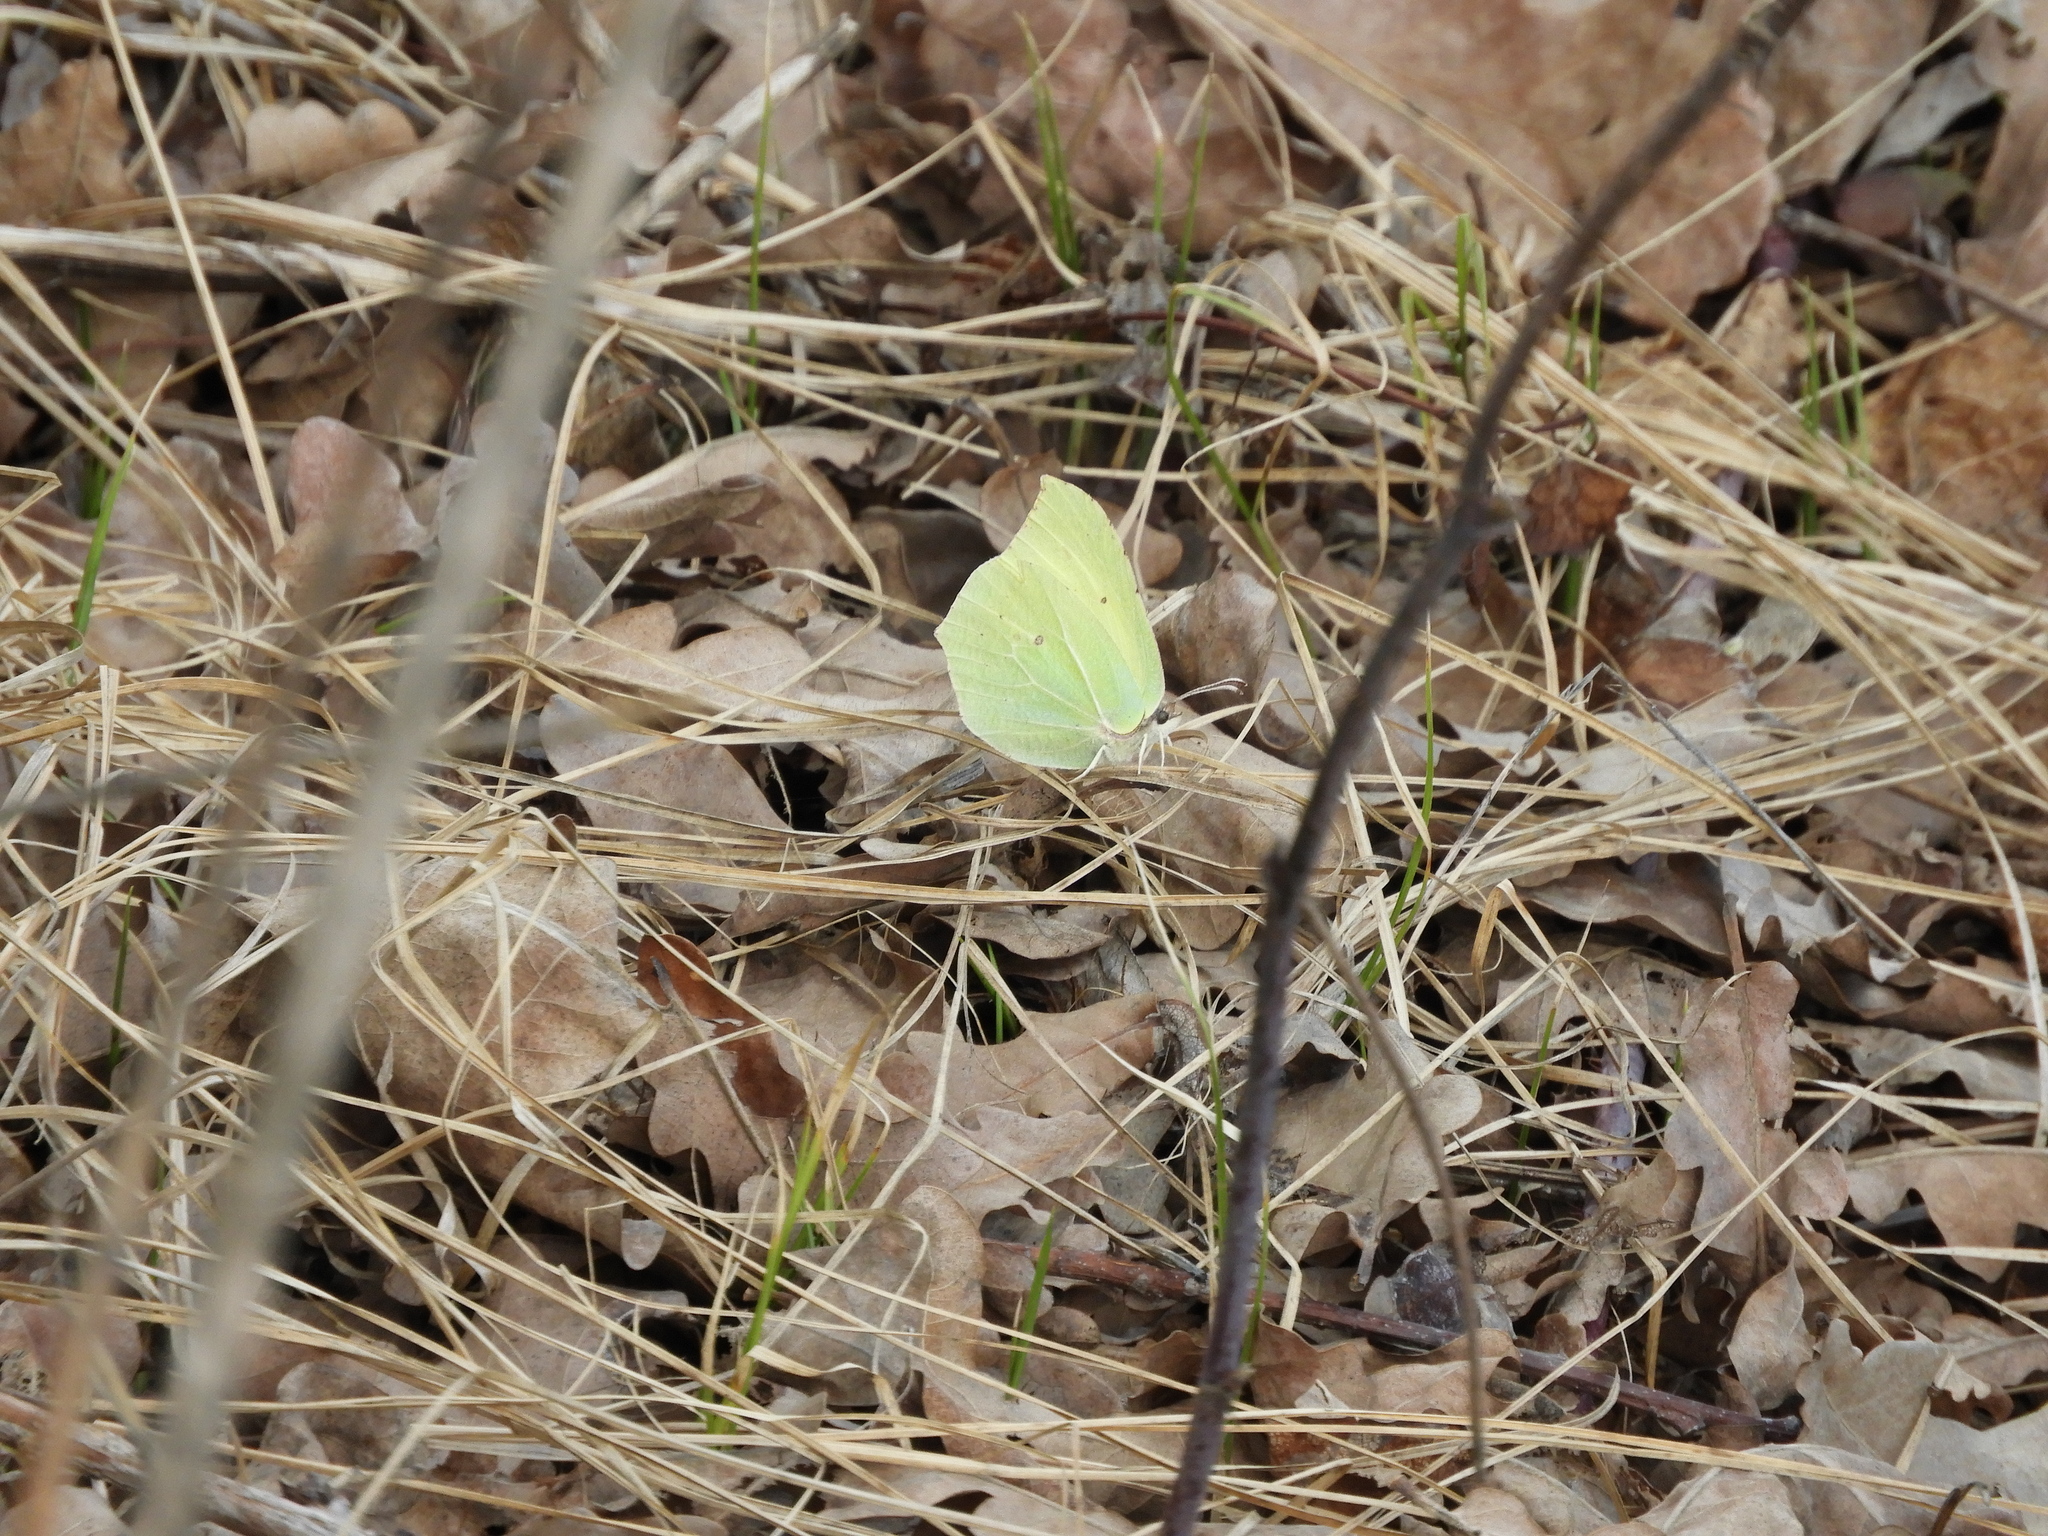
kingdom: Animalia
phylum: Arthropoda
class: Insecta
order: Lepidoptera
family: Pieridae
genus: Gonepteryx
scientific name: Gonepteryx rhamni
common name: Brimstone
